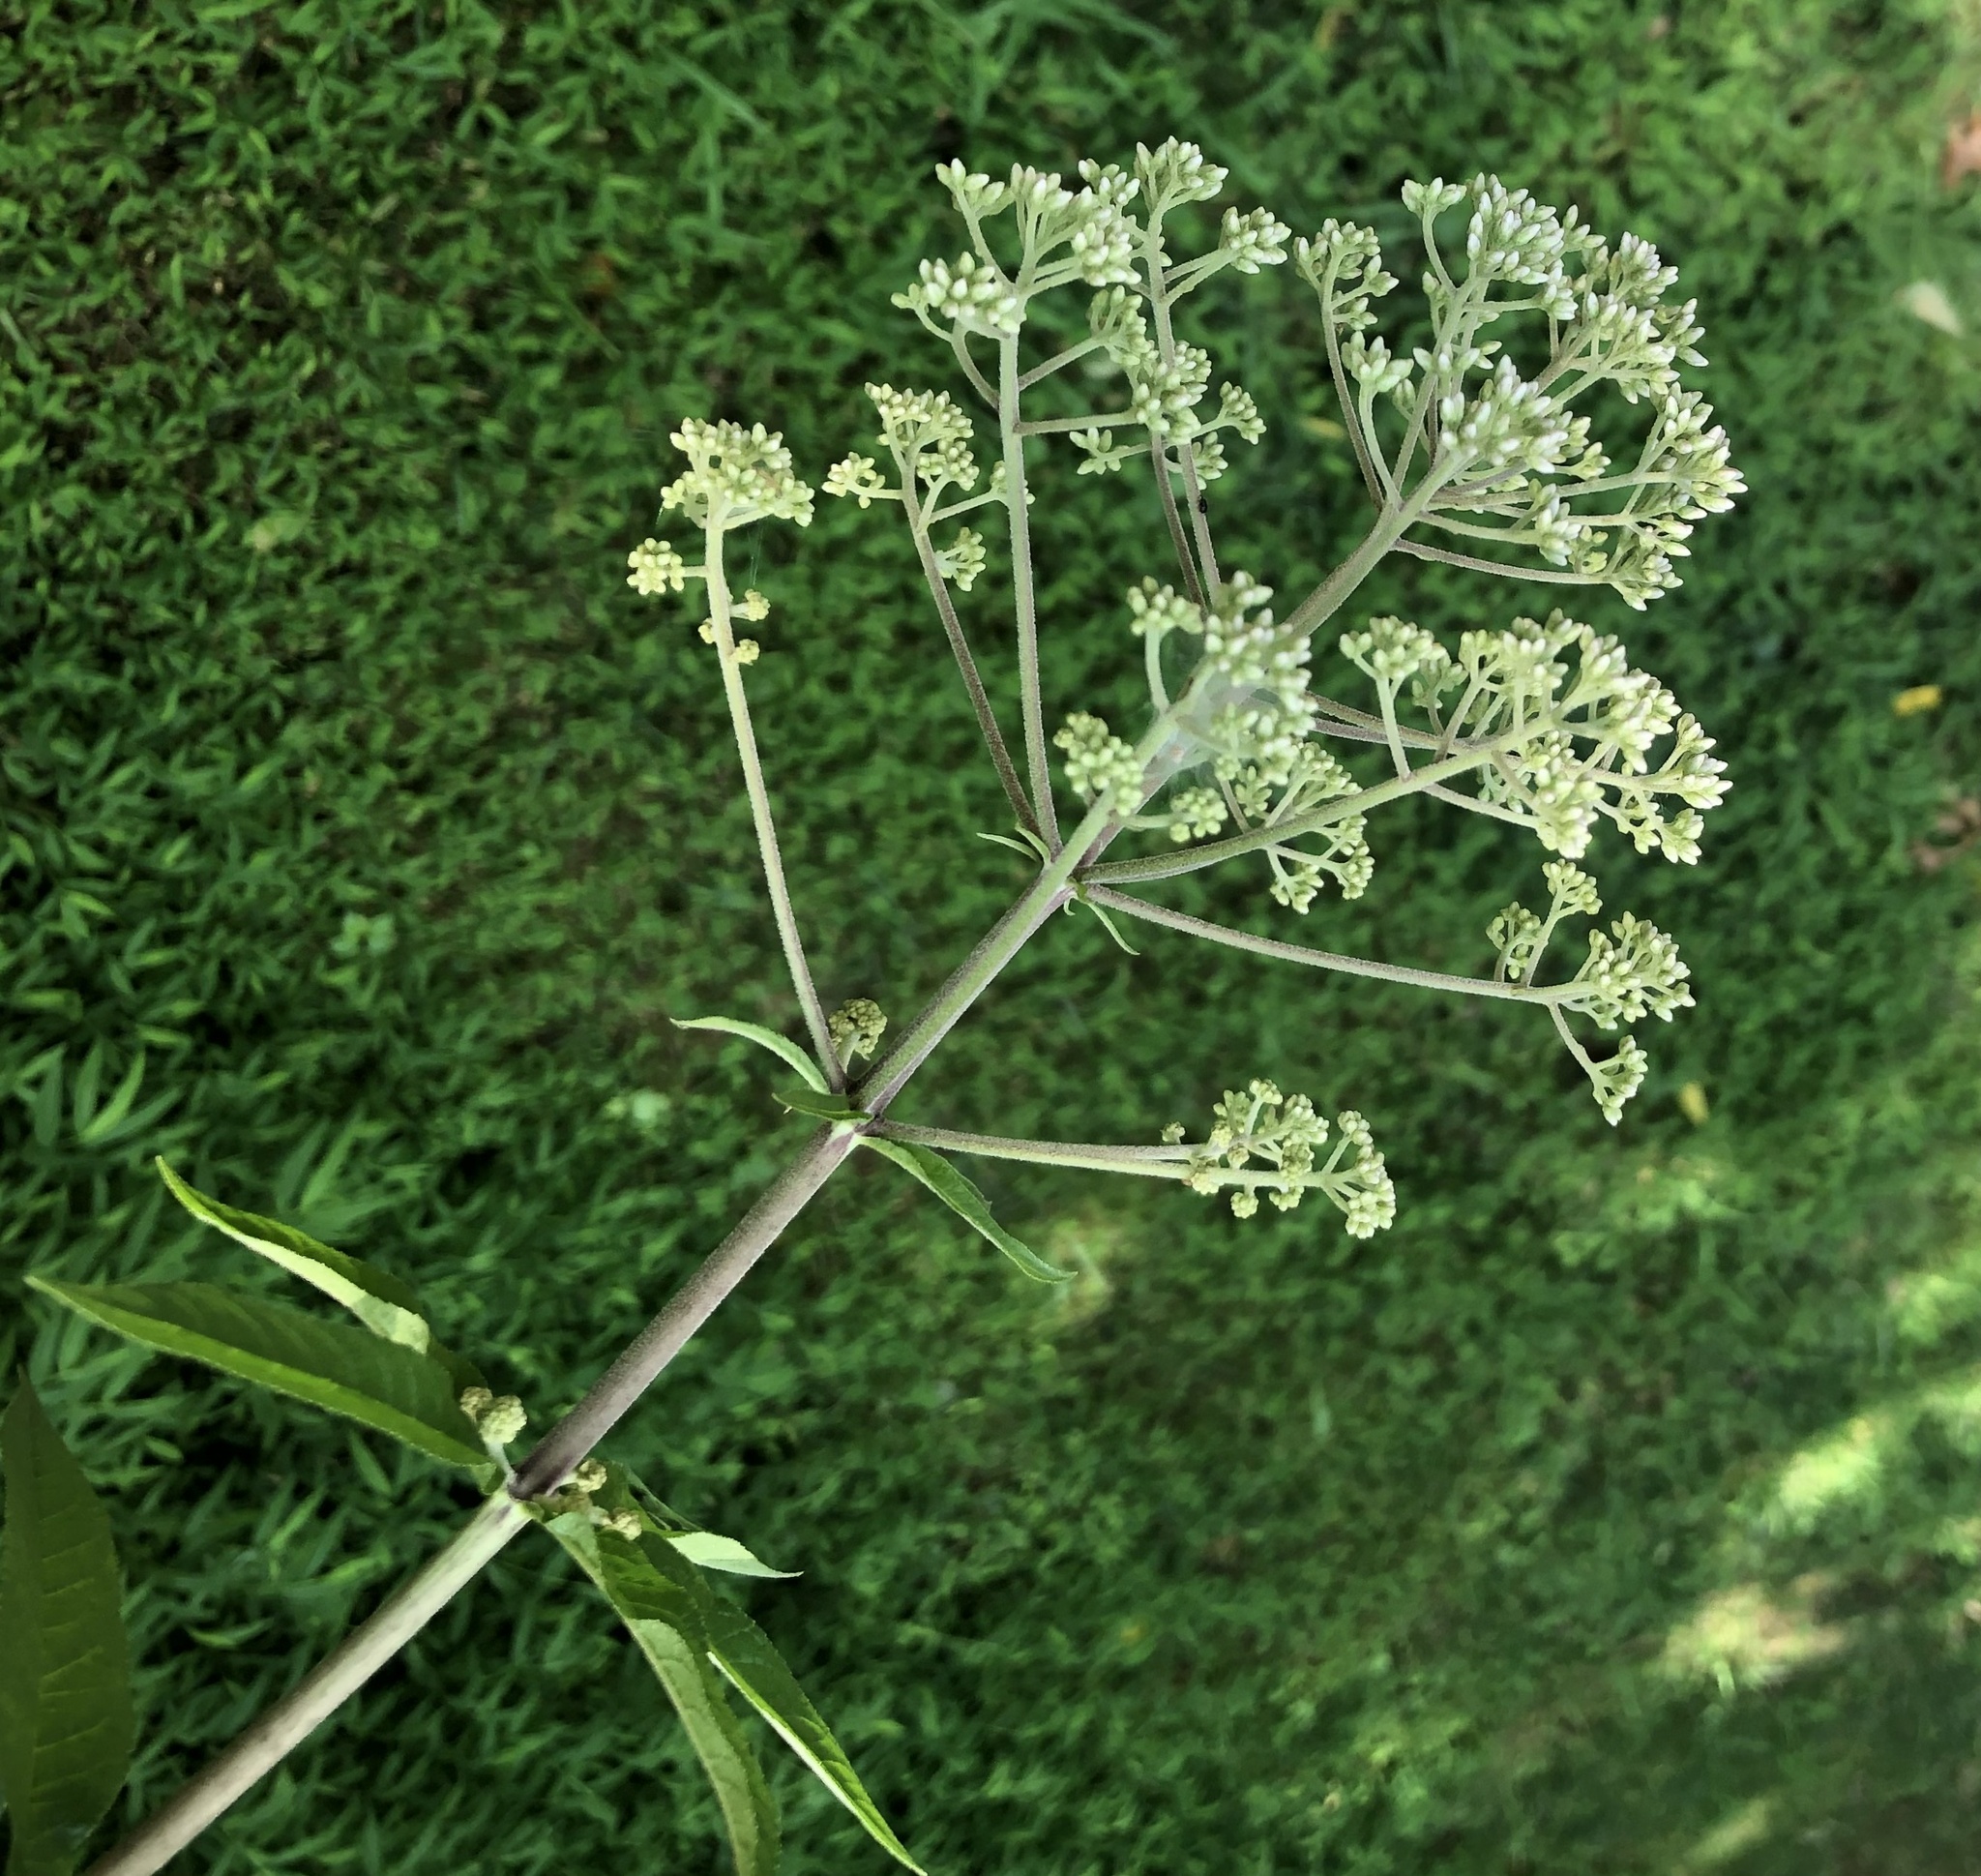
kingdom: Plantae
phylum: Tracheophyta
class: Magnoliopsida
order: Asterales
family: Asteraceae
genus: Eutrochium
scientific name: Eutrochium fistulosum
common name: Trumpetweed
